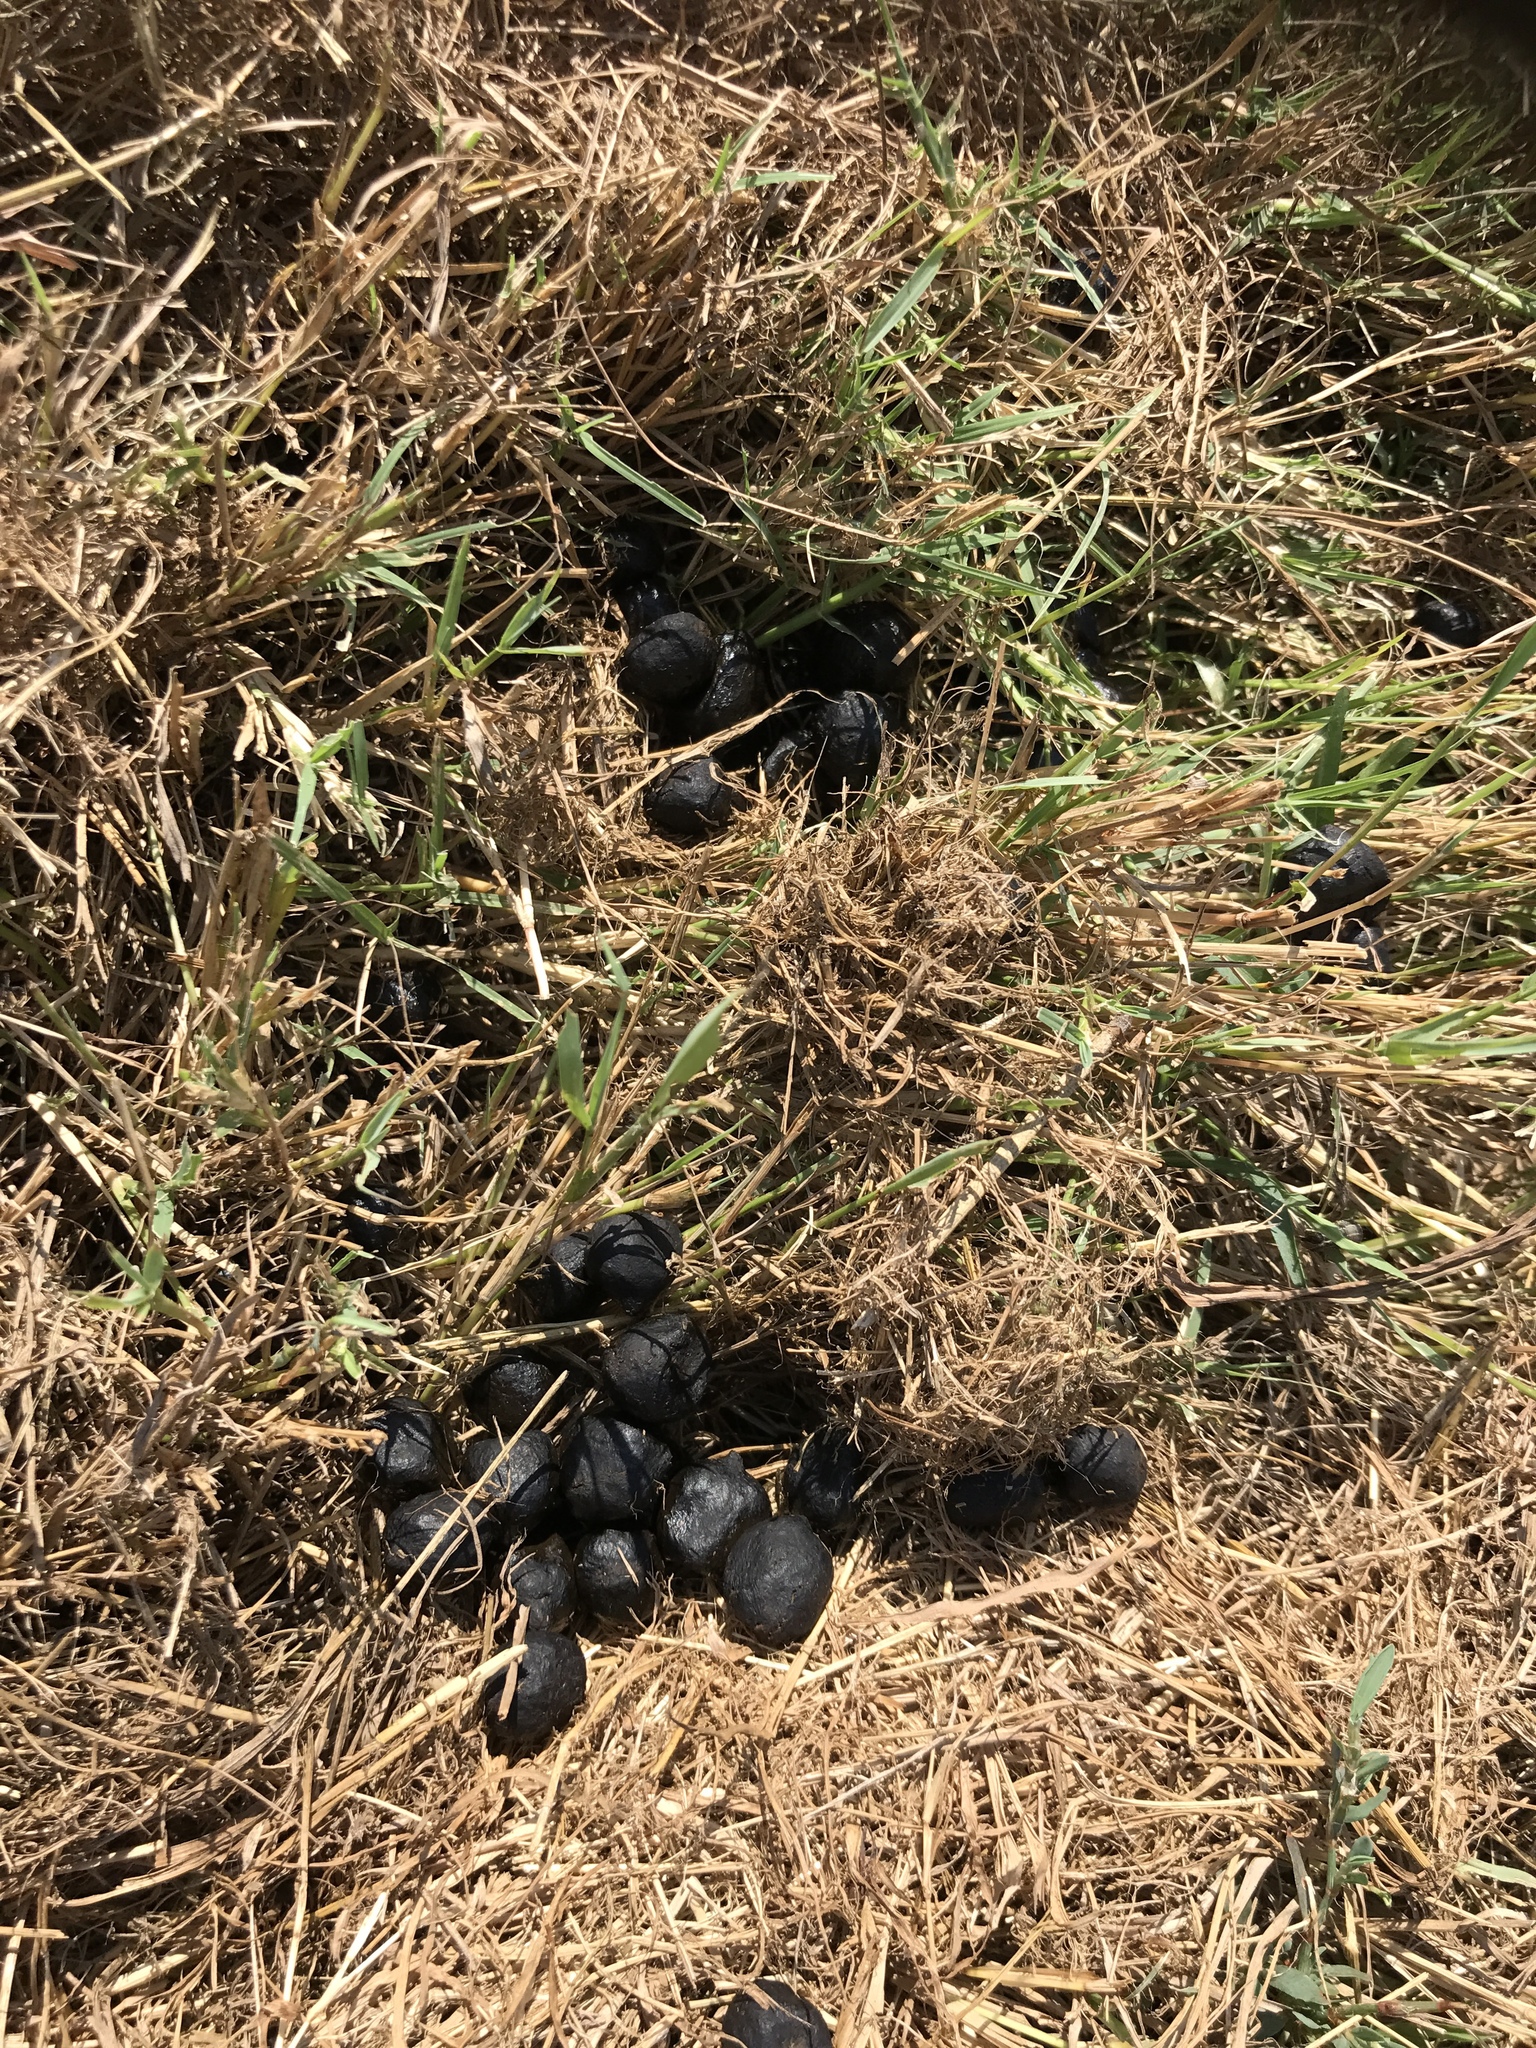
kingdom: Animalia
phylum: Chordata
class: Mammalia
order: Artiodactyla
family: Cervidae
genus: Odocoileus
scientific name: Odocoileus virginianus
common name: White-tailed deer
